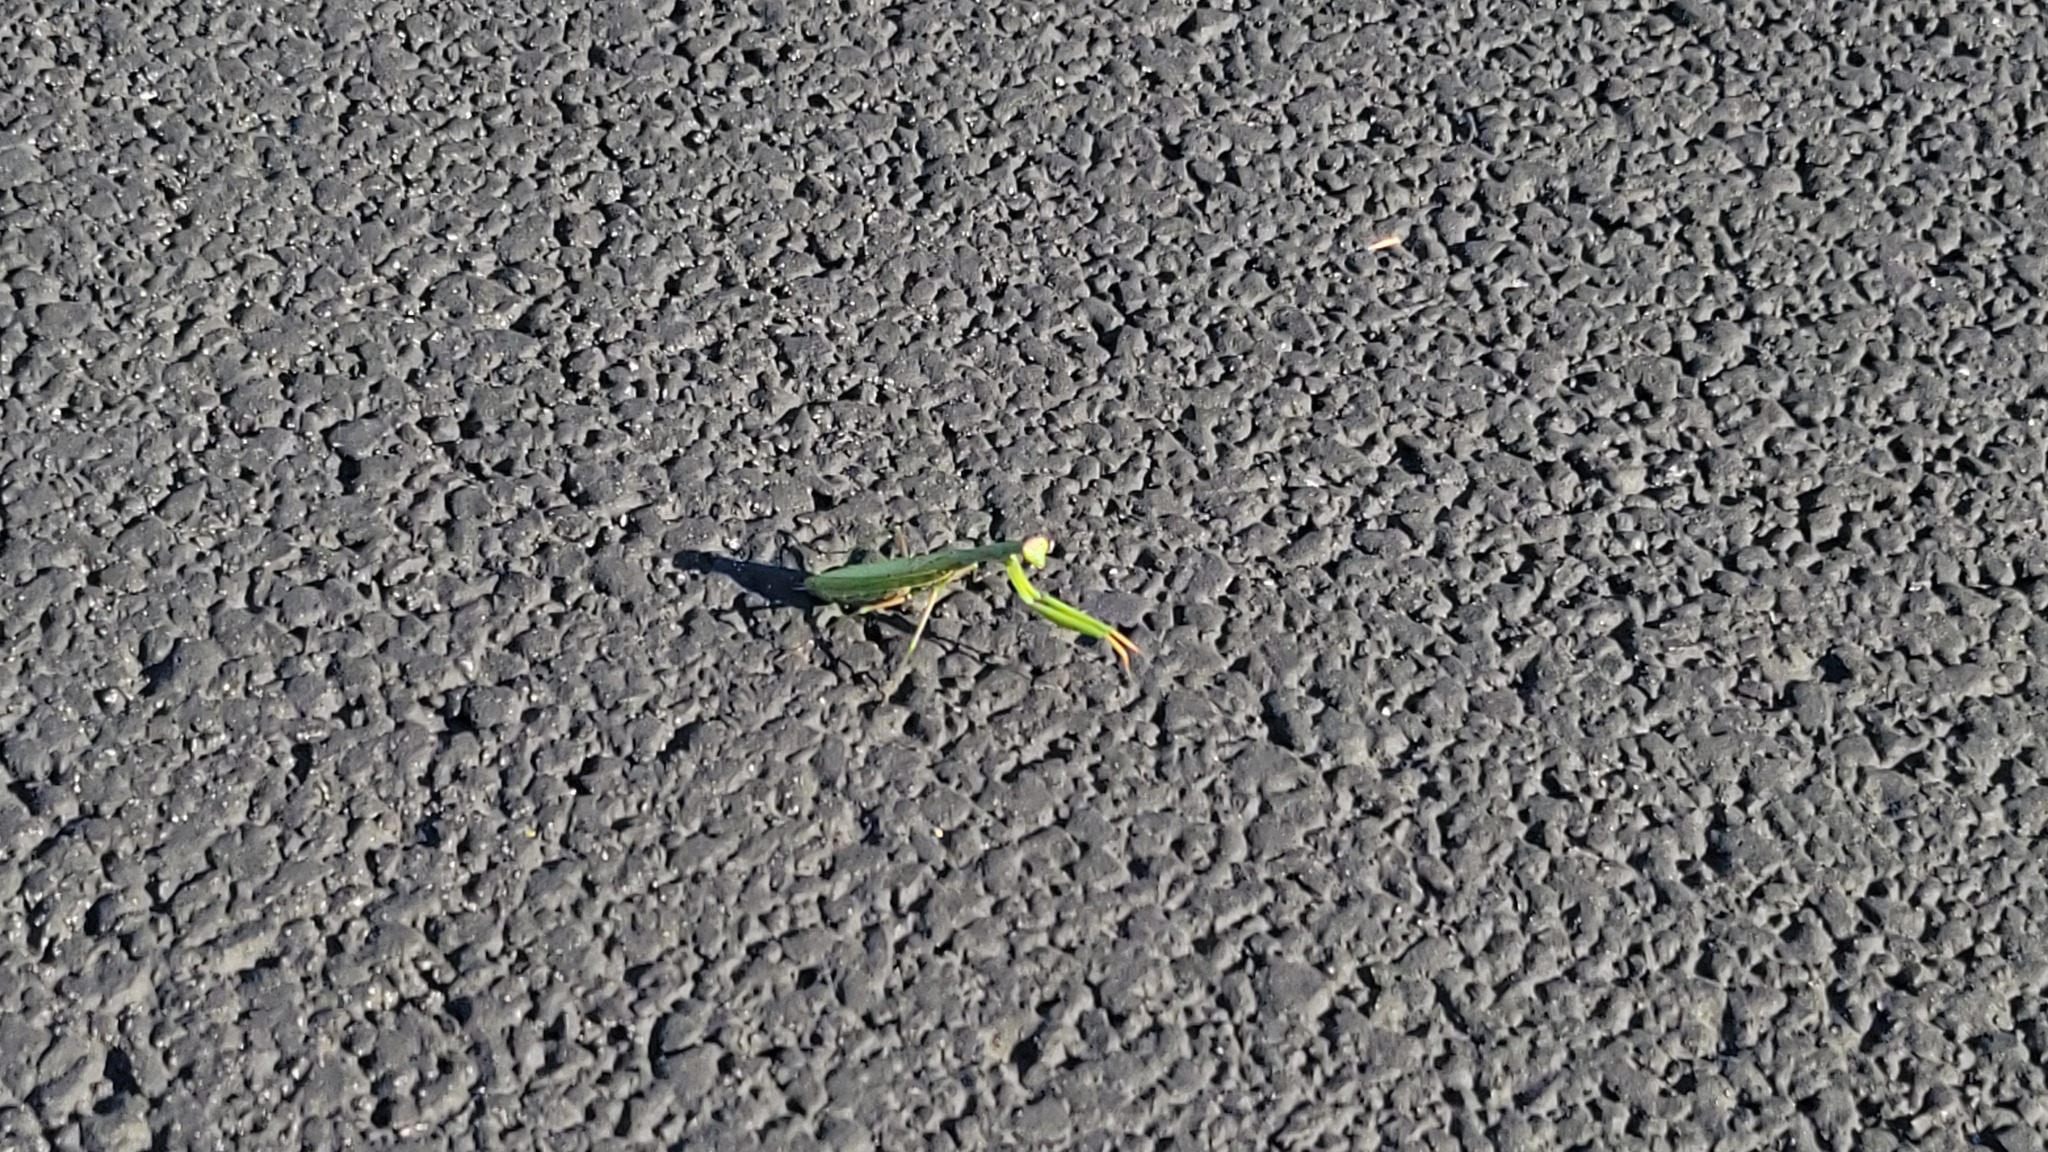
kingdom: Animalia
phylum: Arthropoda
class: Insecta
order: Mantodea
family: Mantidae
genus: Mantis
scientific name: Mantis religiosa
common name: Praying mantis
